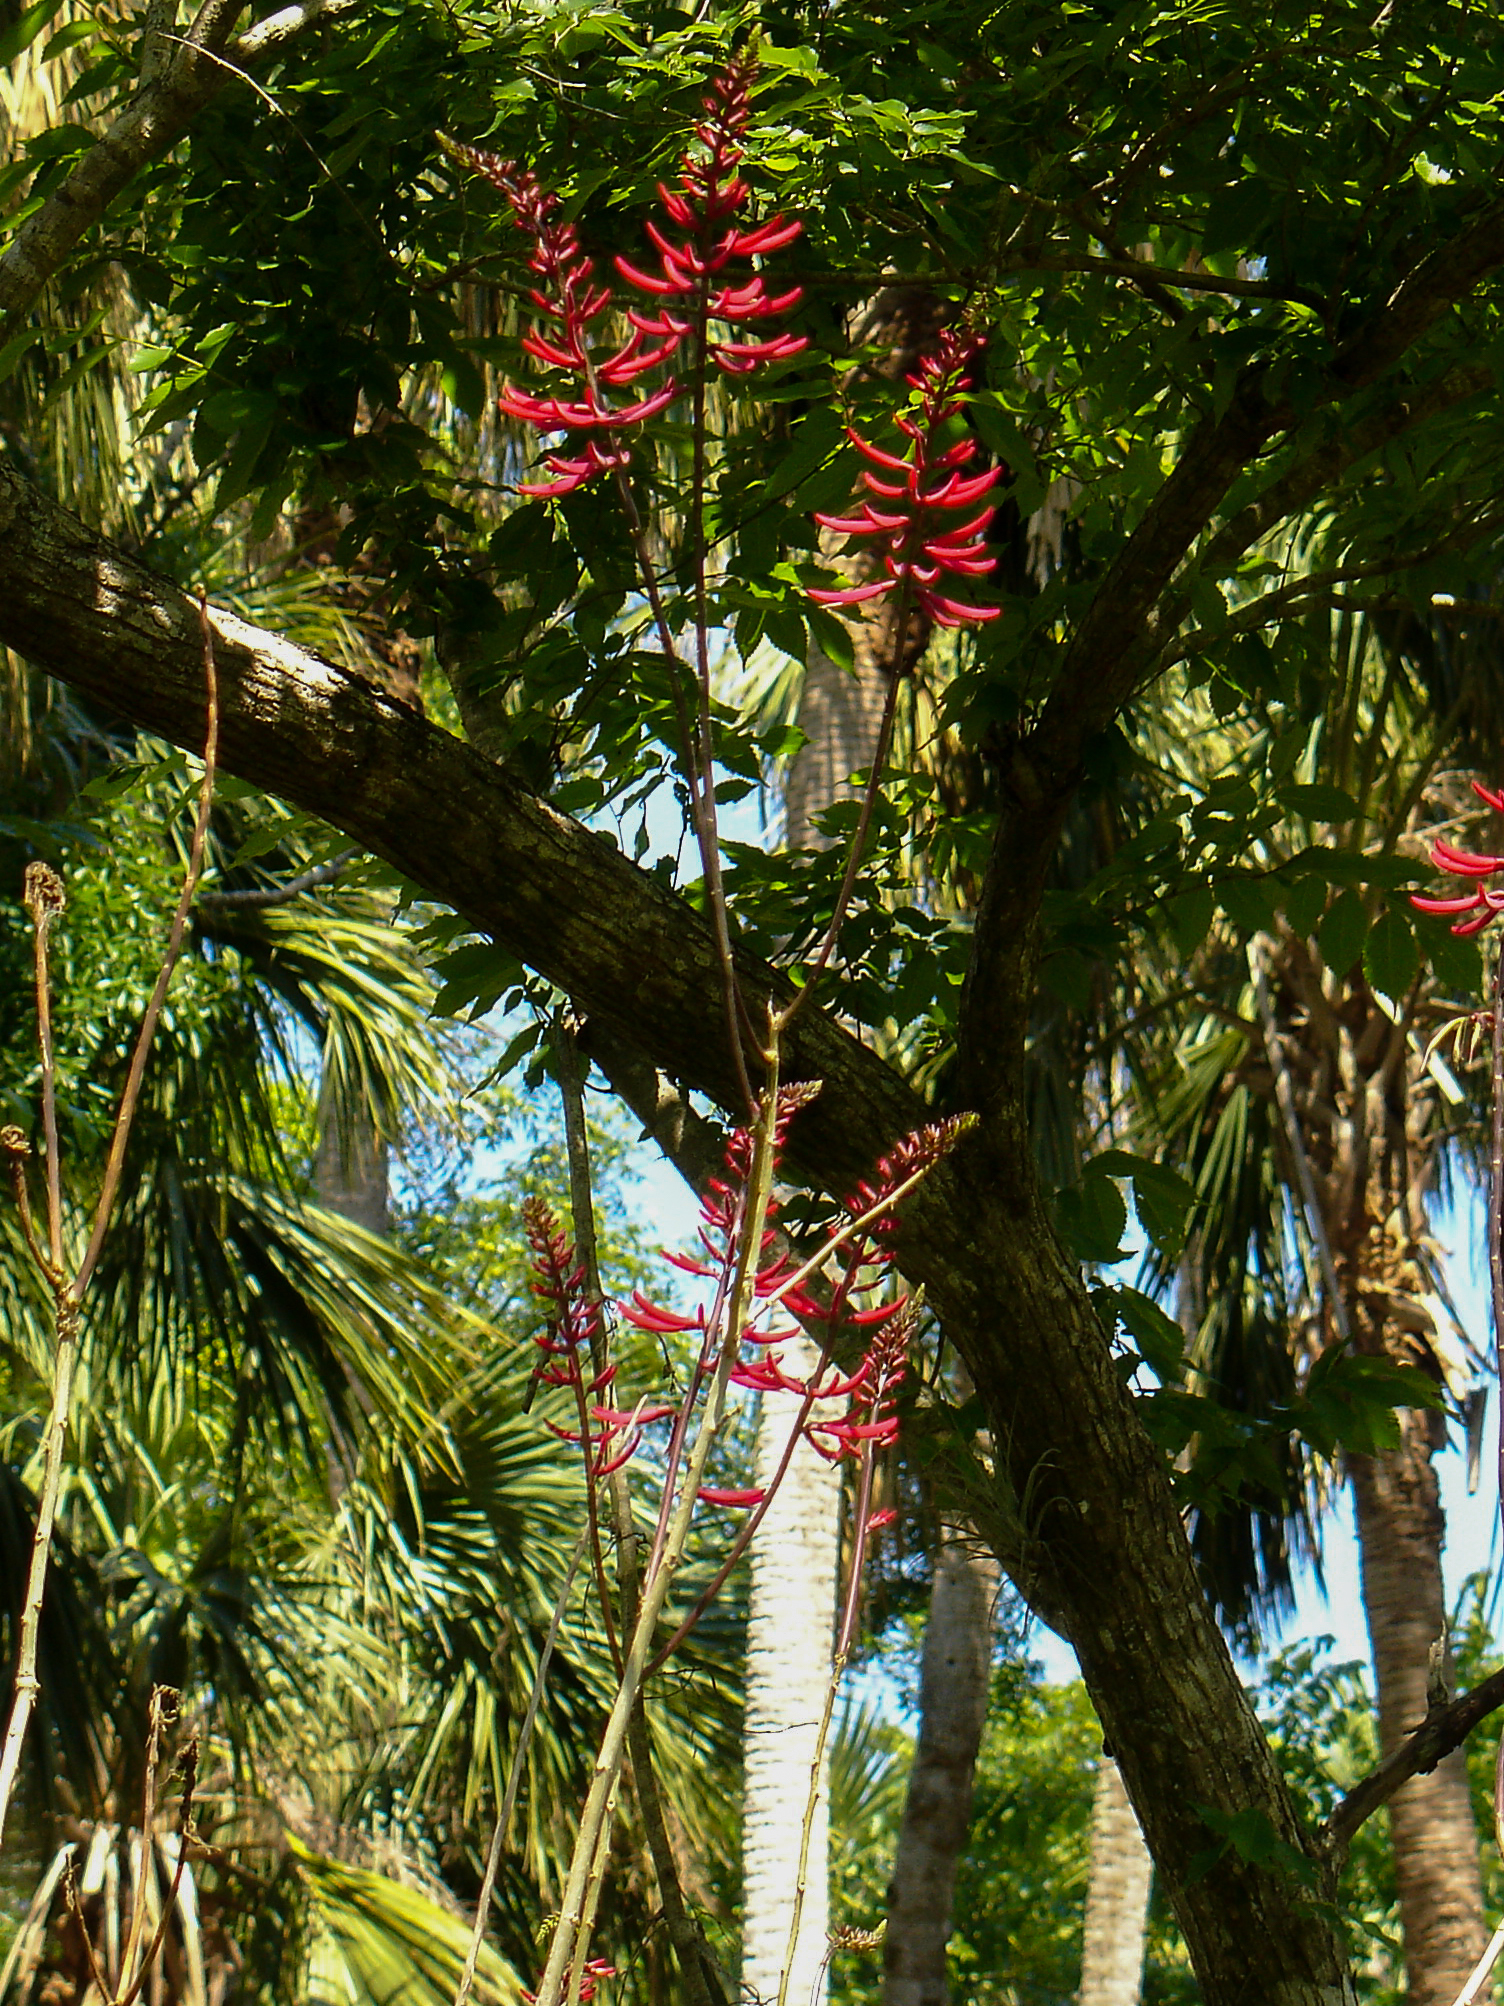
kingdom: Plantae
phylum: Tracheophyta
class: Magnoliopsida
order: Fabales
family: Fabaceae
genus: Erythrina
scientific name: Erythrina herbacea
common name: Coral-bean
